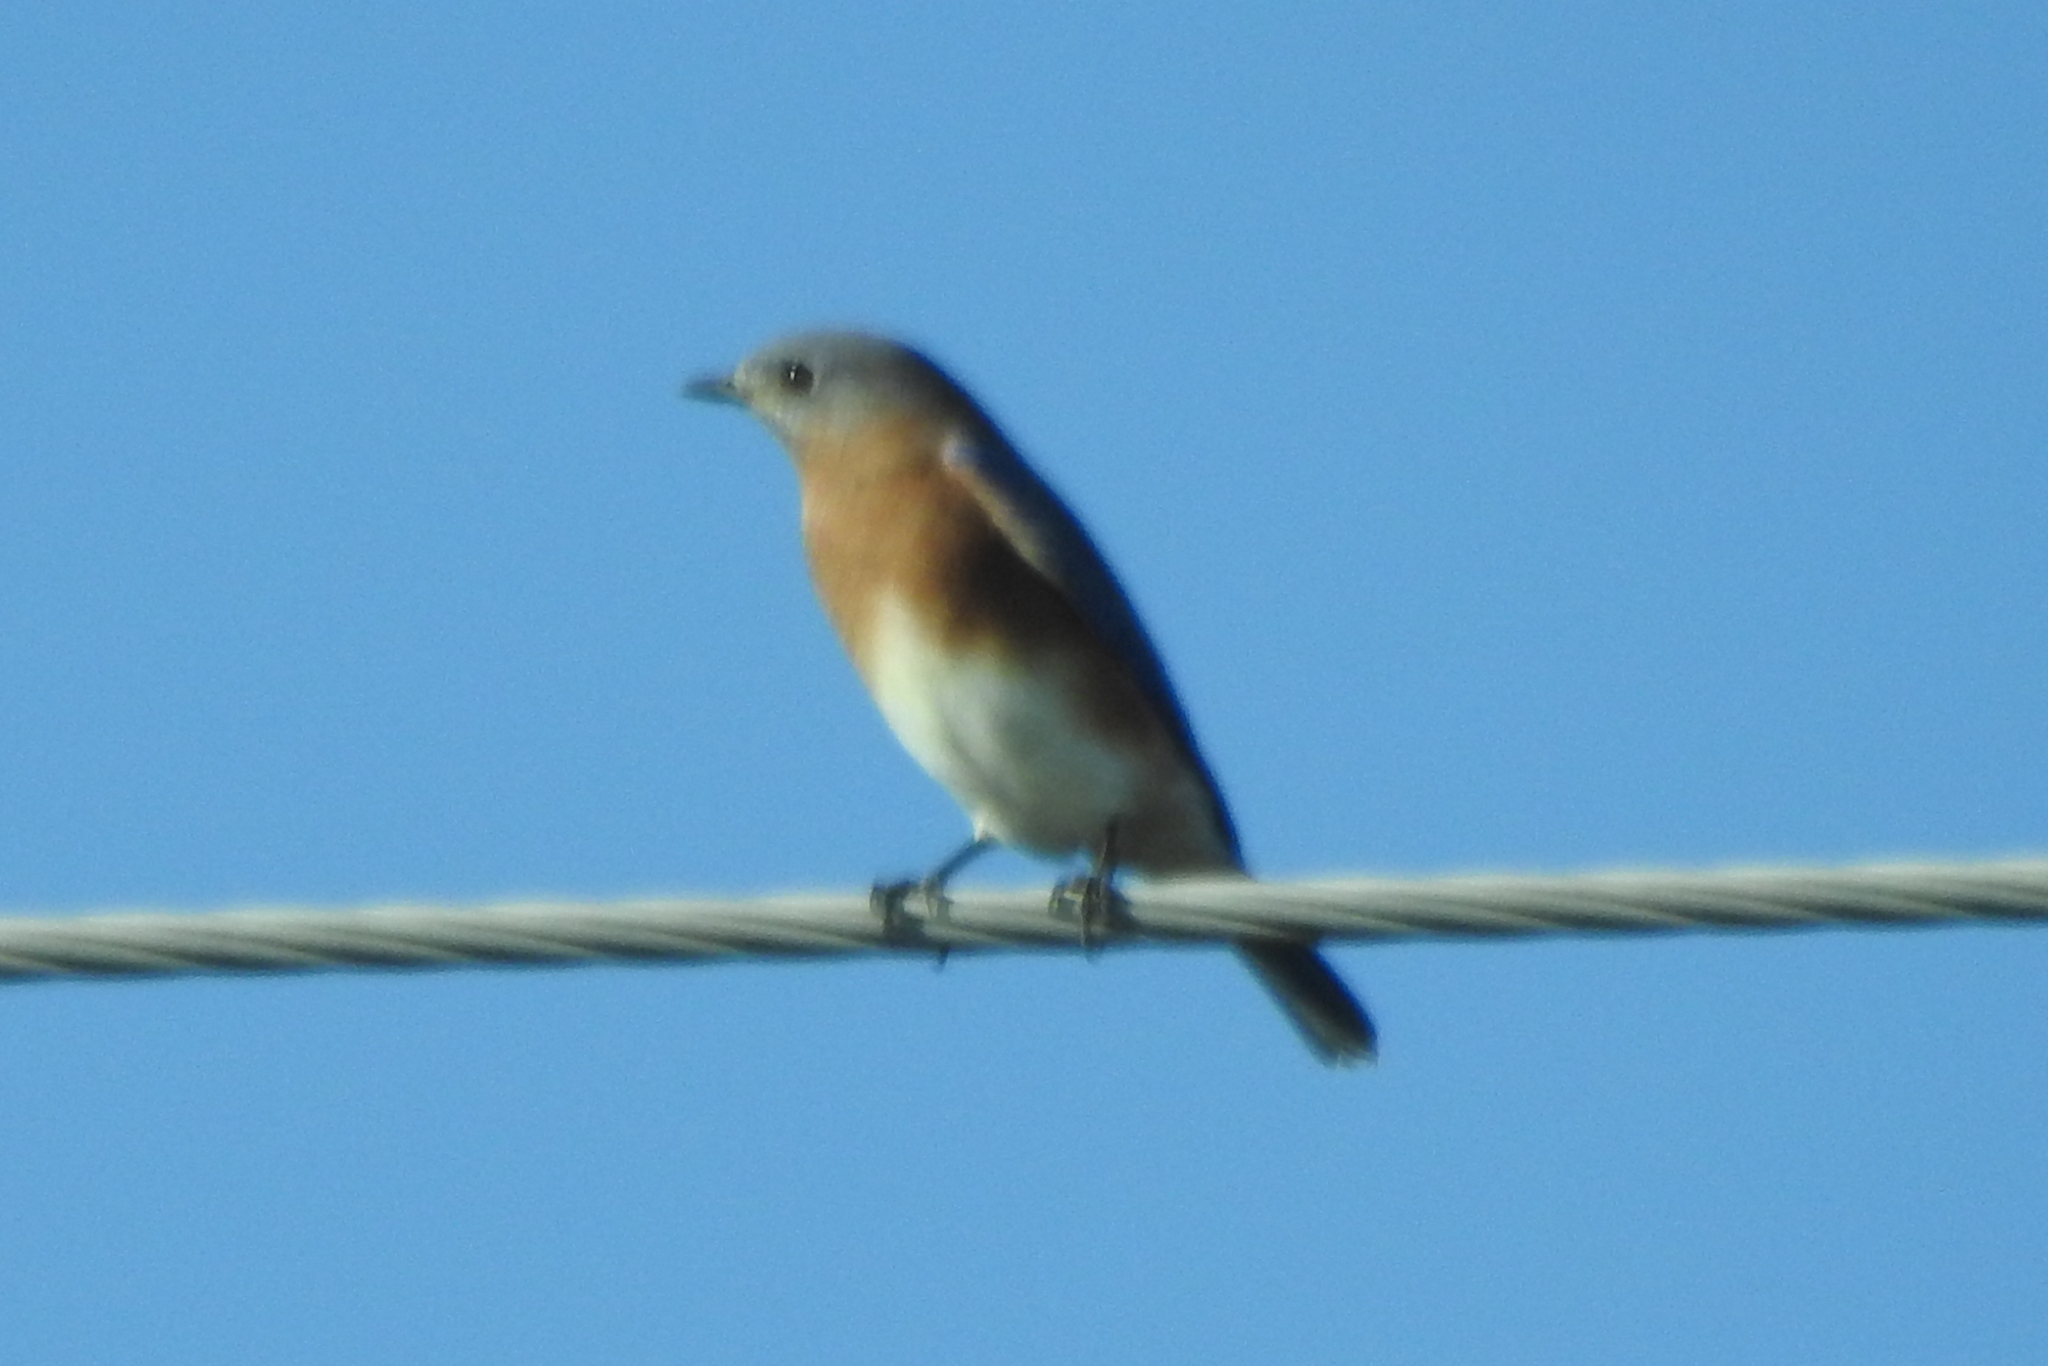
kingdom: Animalia
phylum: Chordata
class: Aves
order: Passeriformes
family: Turdidae
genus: Sialia
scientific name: Sialia sialis
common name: Eastern bluebird
